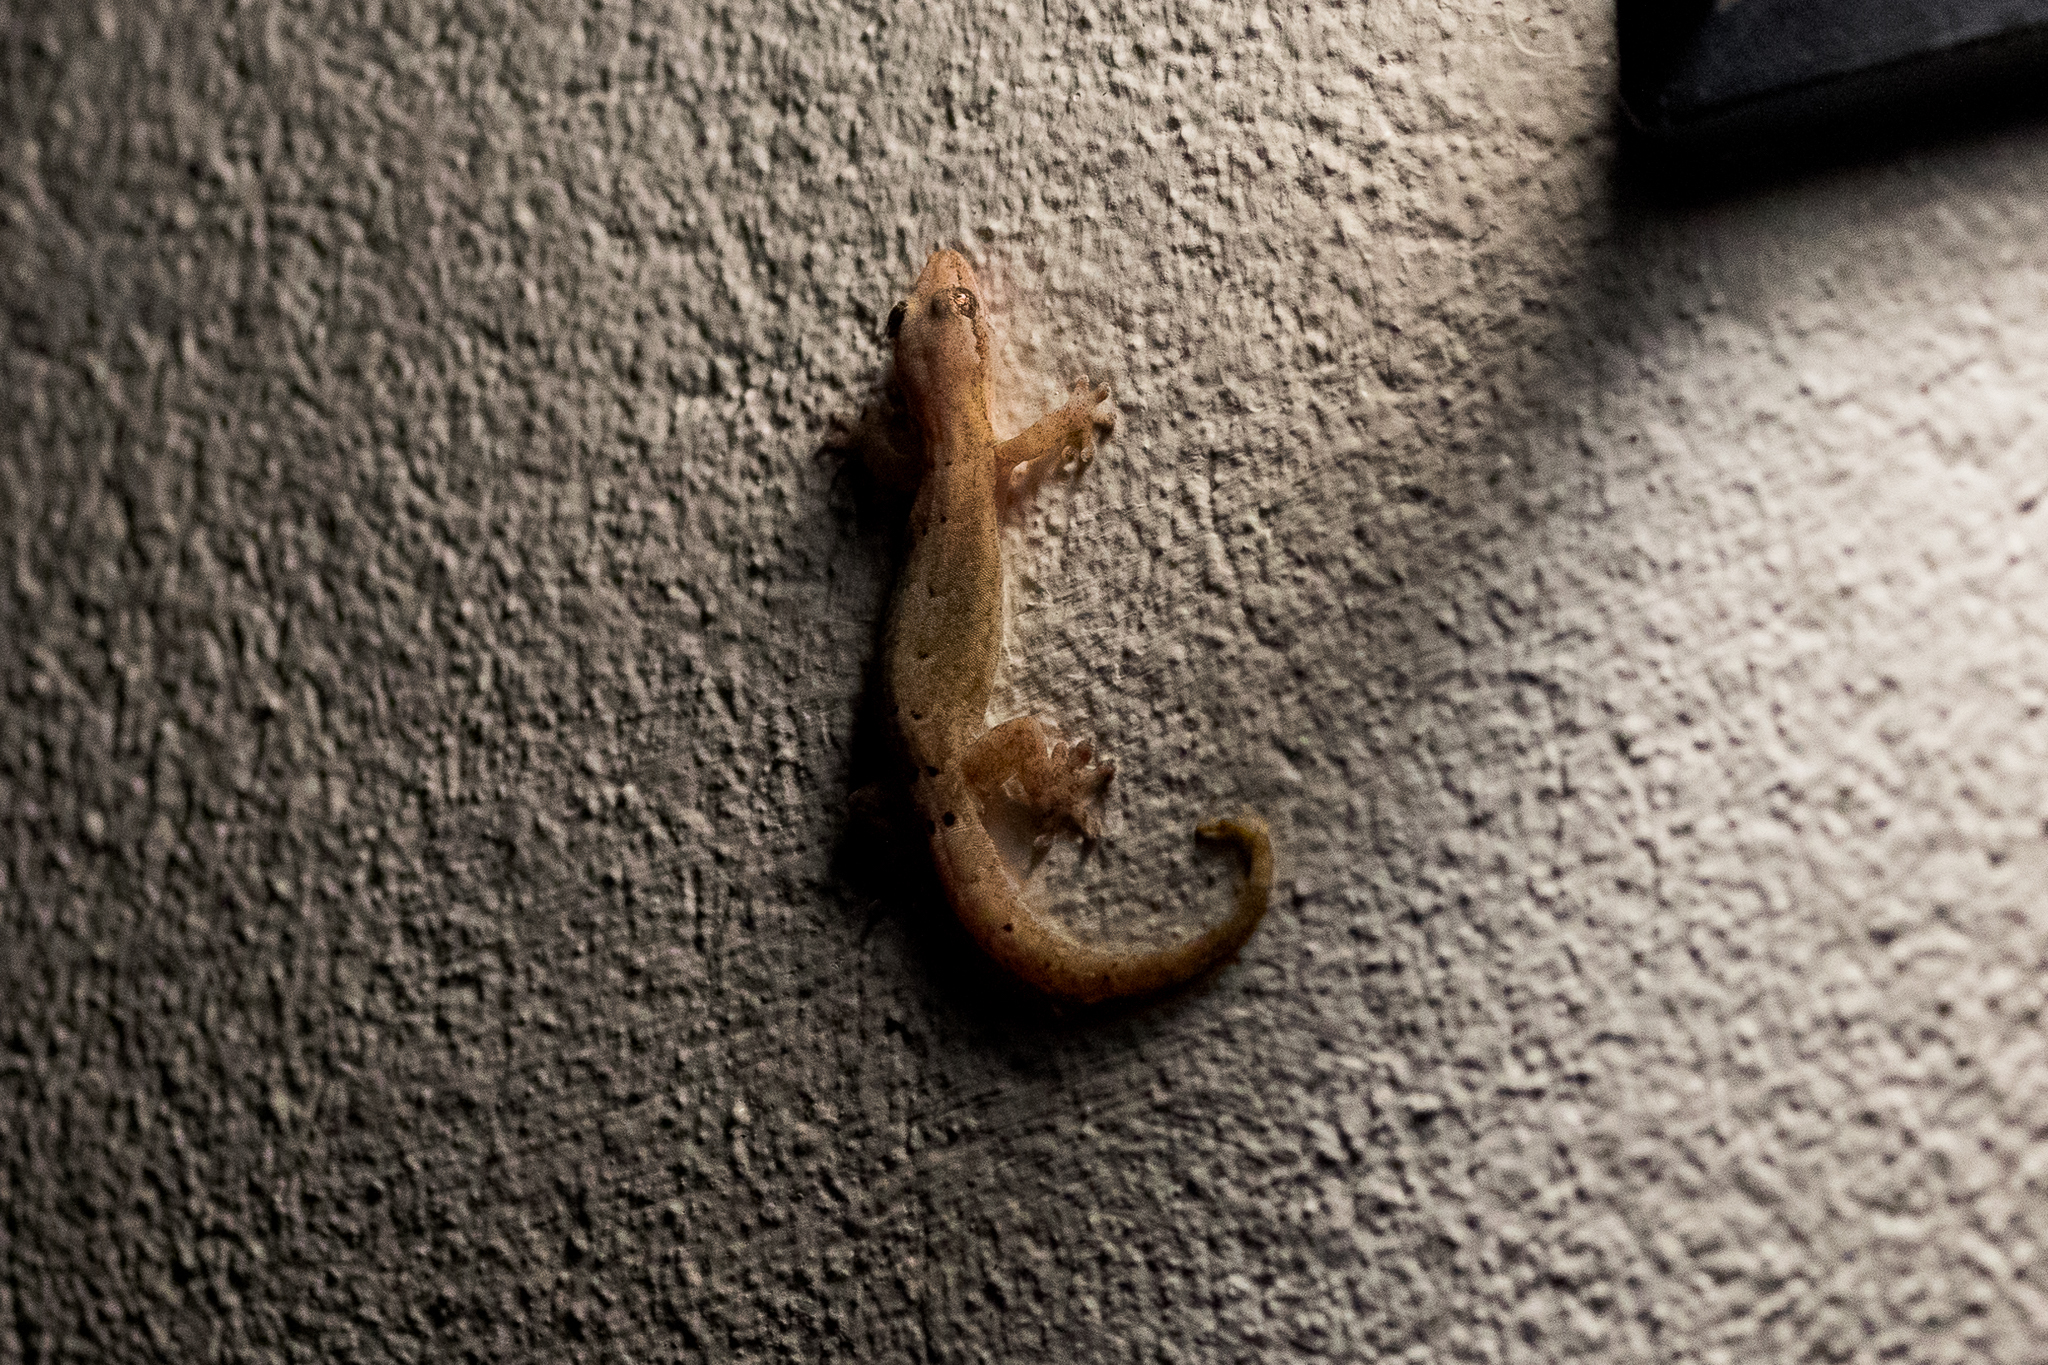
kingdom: Animalia
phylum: Chordata
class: Squamata
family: Gekkonidae
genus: Lepidodactylus
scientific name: Lepidodactylus lugubris
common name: Mourning gecko
